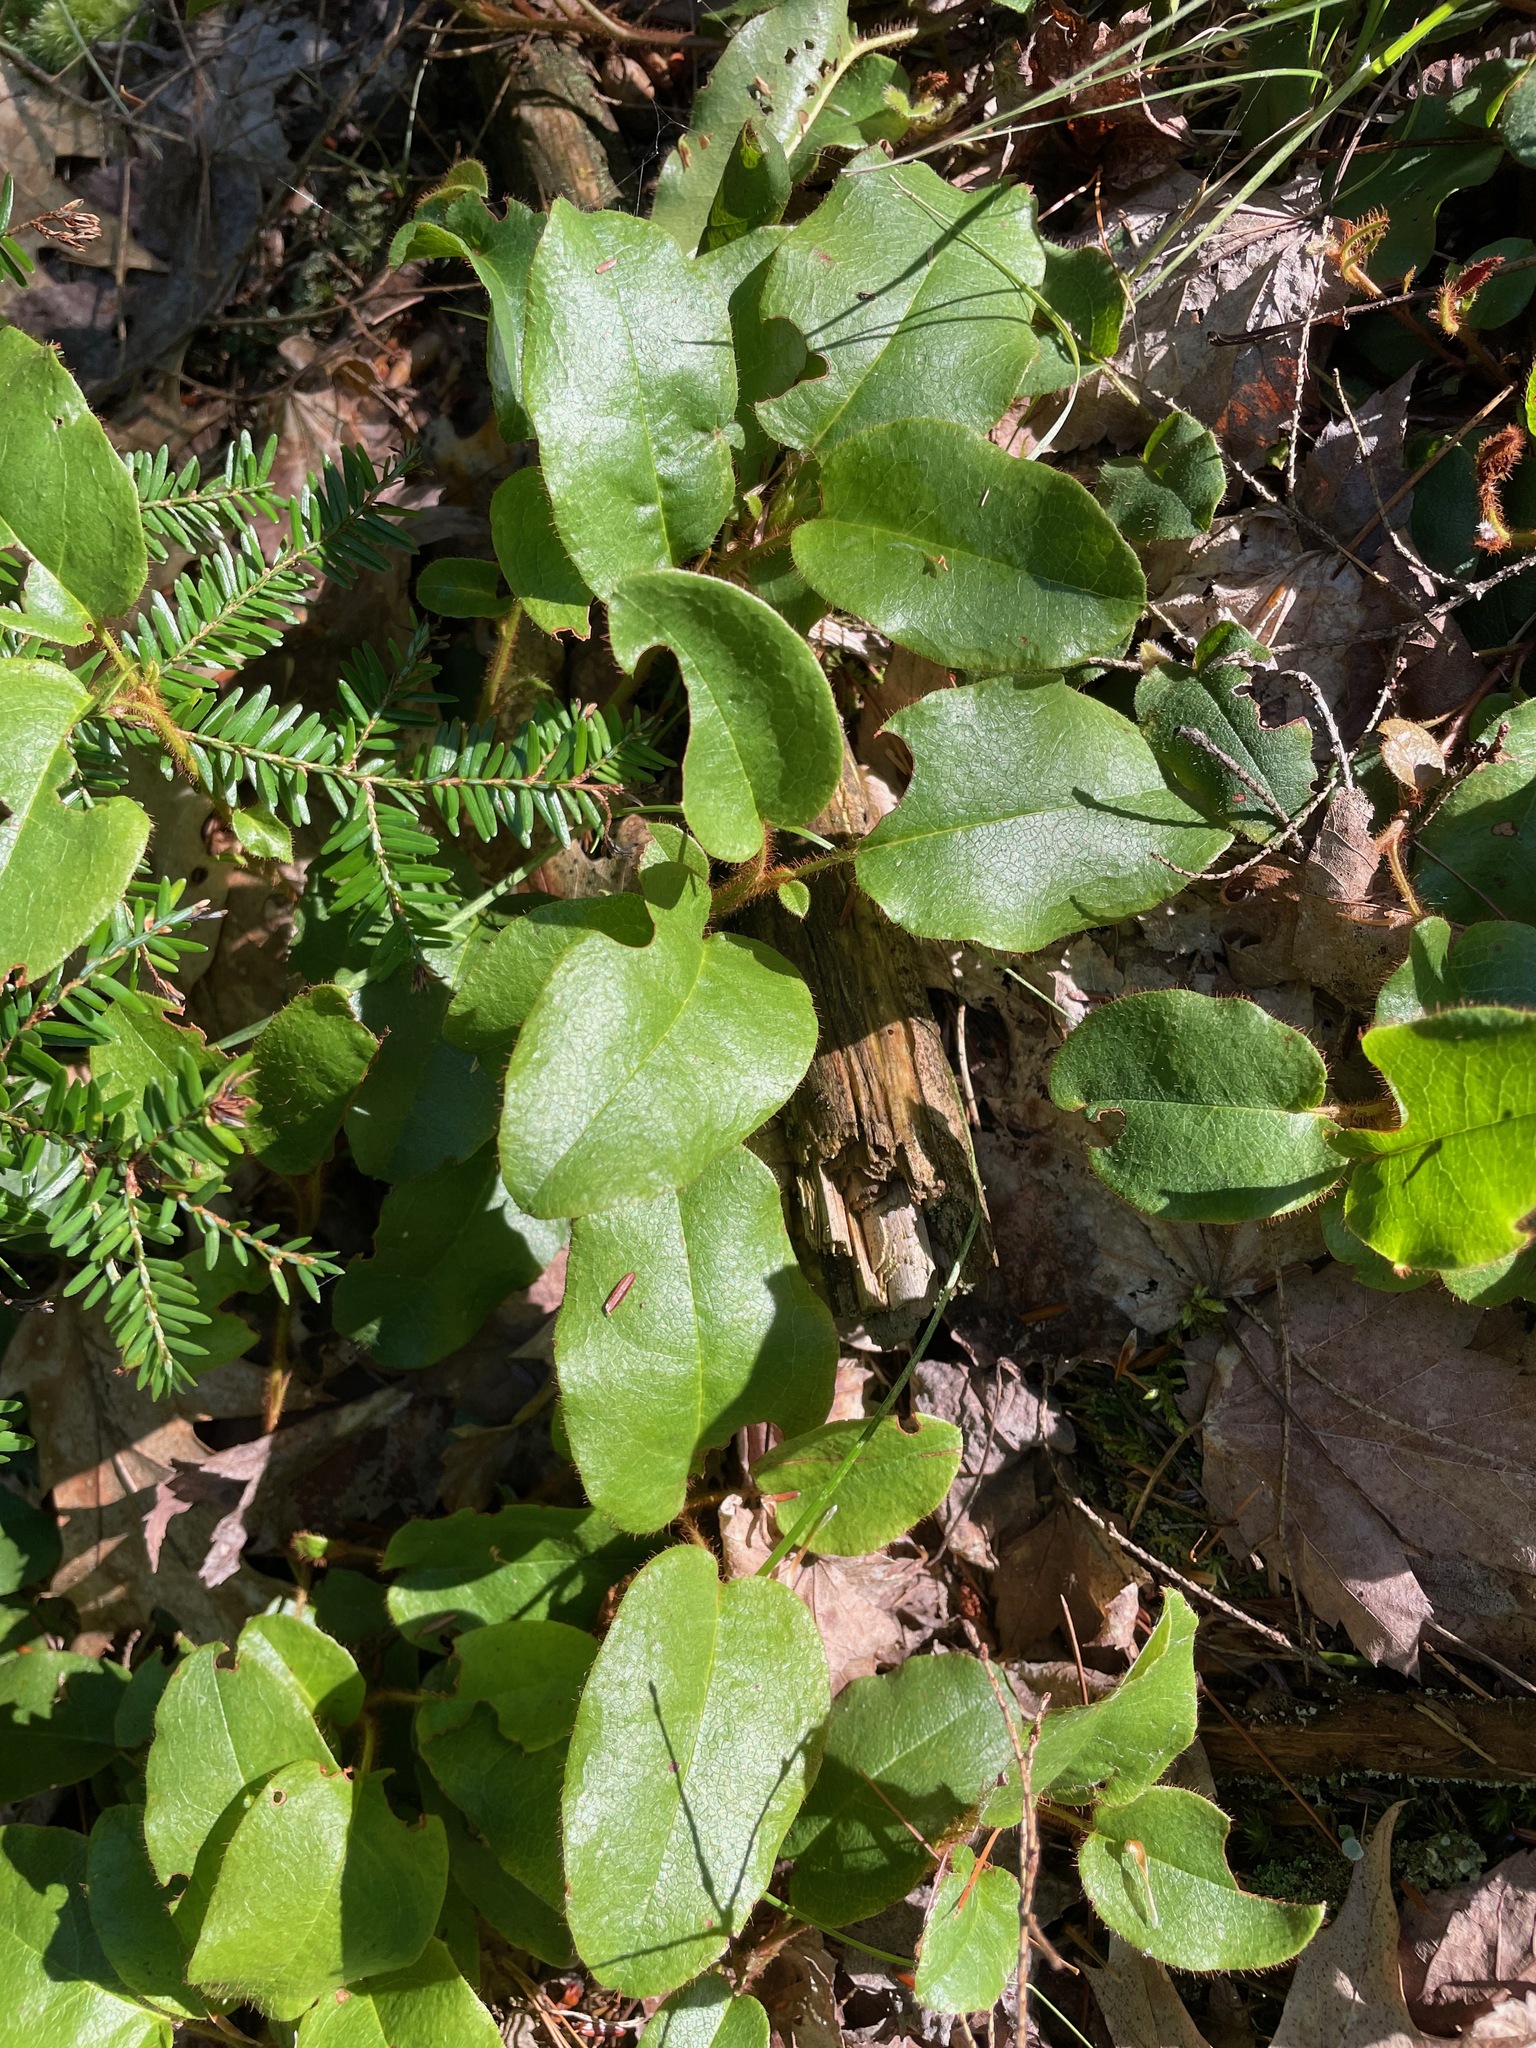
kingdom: Plantae
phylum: Tracheophyta
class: Magnoliopsida
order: Ericales
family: Ericaceae
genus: Epigaea
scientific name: Epigaea repens
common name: Gravelroot
